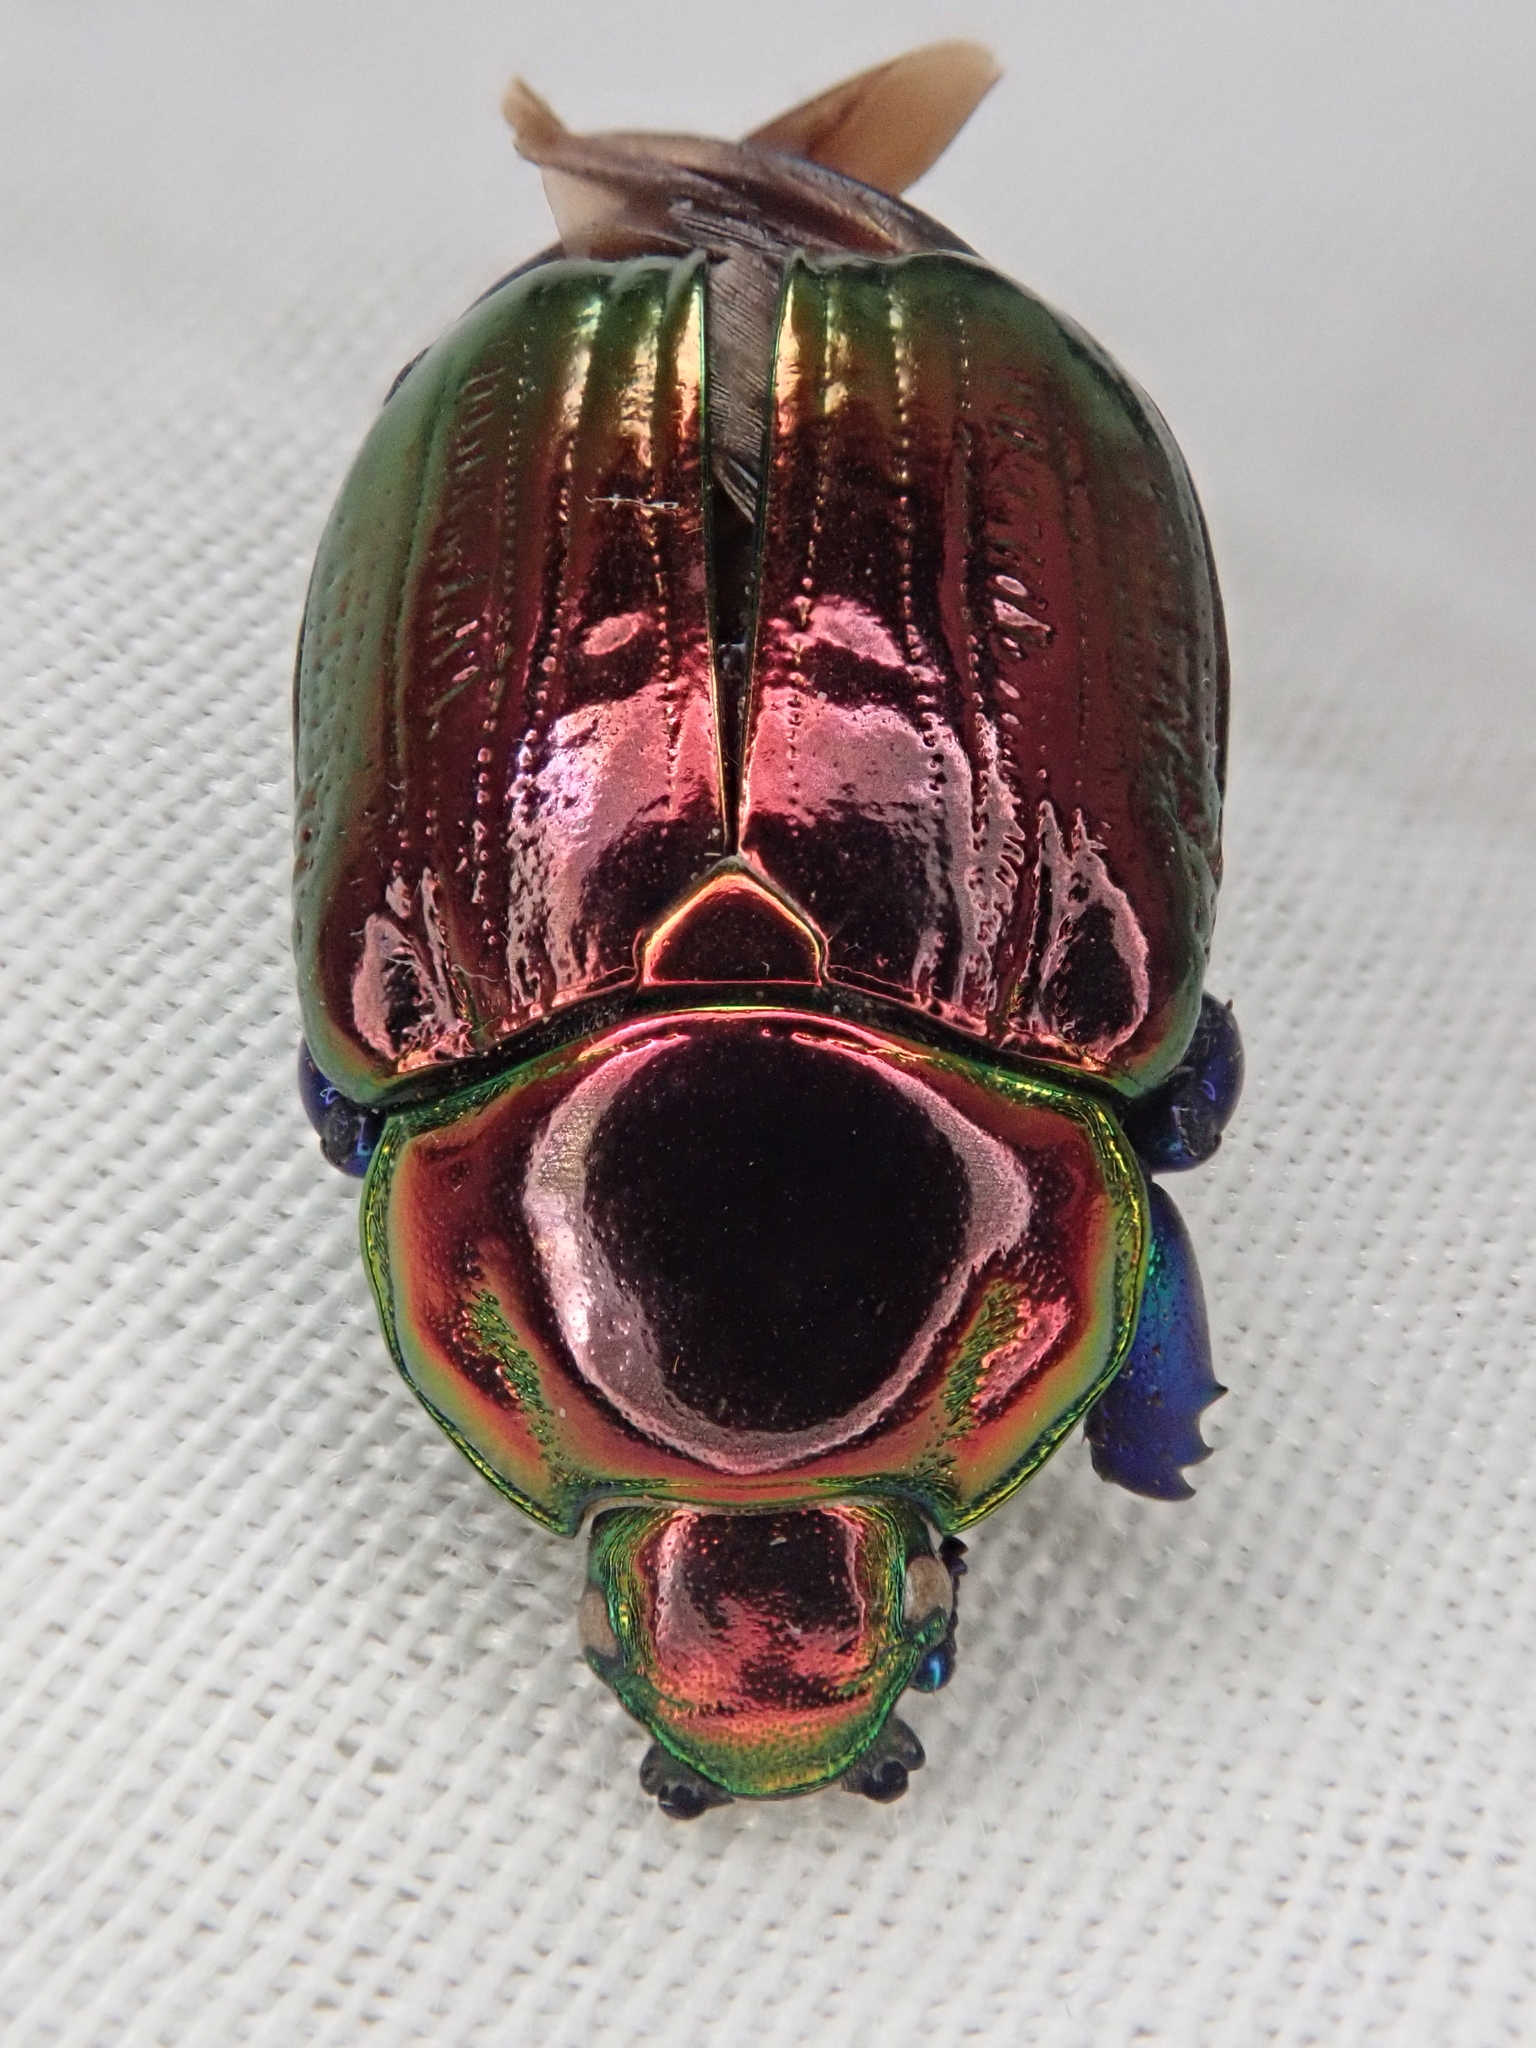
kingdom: Animalia
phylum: Arthropoda
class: Insecta
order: Coleoptera
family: Scarabaeidae
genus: Pelidnota
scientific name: Pelidnota sumptuosa
